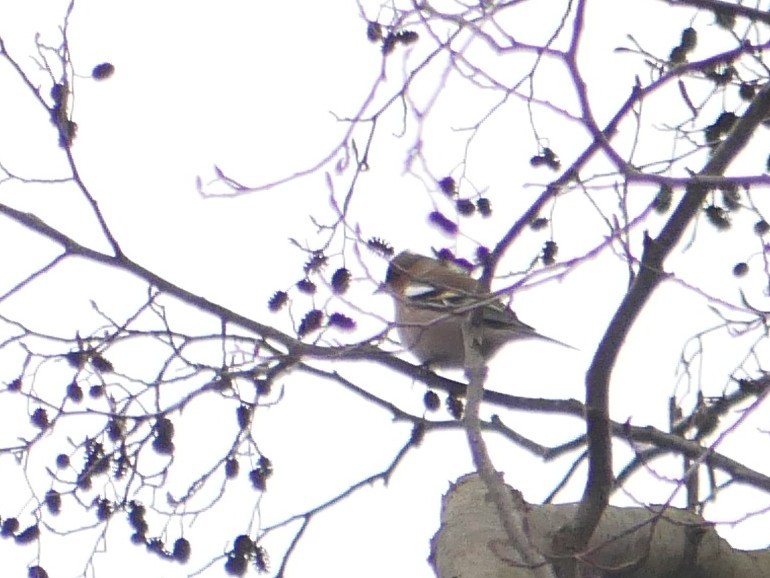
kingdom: Animalia
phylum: Chordata
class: Aves
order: Passeriformes
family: Fringillidae
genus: Fringilla
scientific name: Fringilla coelebs
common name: Common chaffinch
